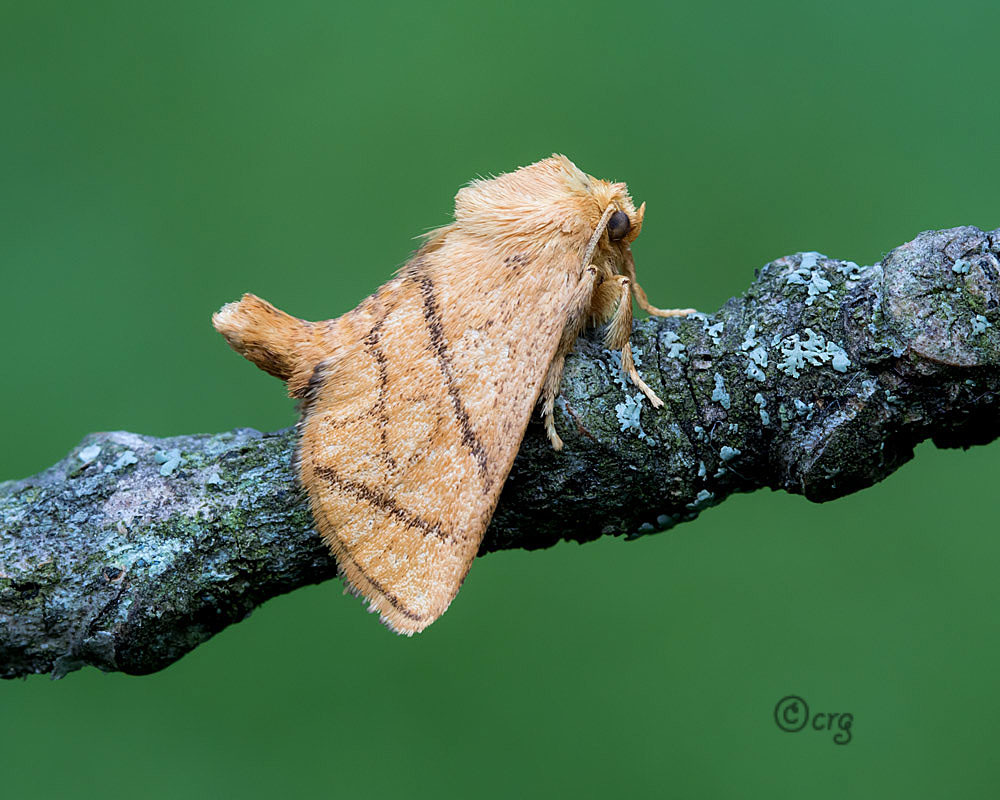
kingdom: Animalia
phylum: Arthropoda
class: Insecta
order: Lepidoptera
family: Limacodidae
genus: Apoda
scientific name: Apoda y-inversa
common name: Yellow-collared slug moth
